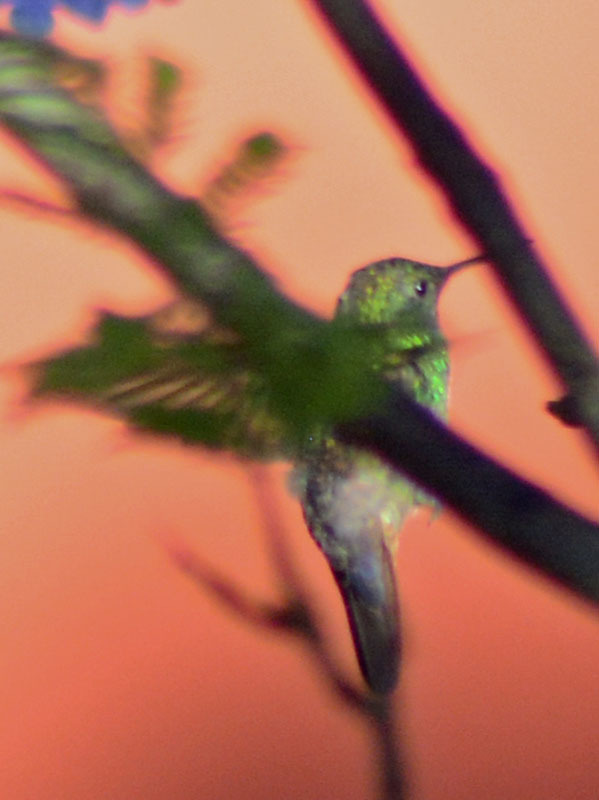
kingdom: Animalia
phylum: Chordata
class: Aves
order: Apodiformes
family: Trochilidae
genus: Saucerottia
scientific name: Saucerottia beryllina
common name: Berylline hummingbird
